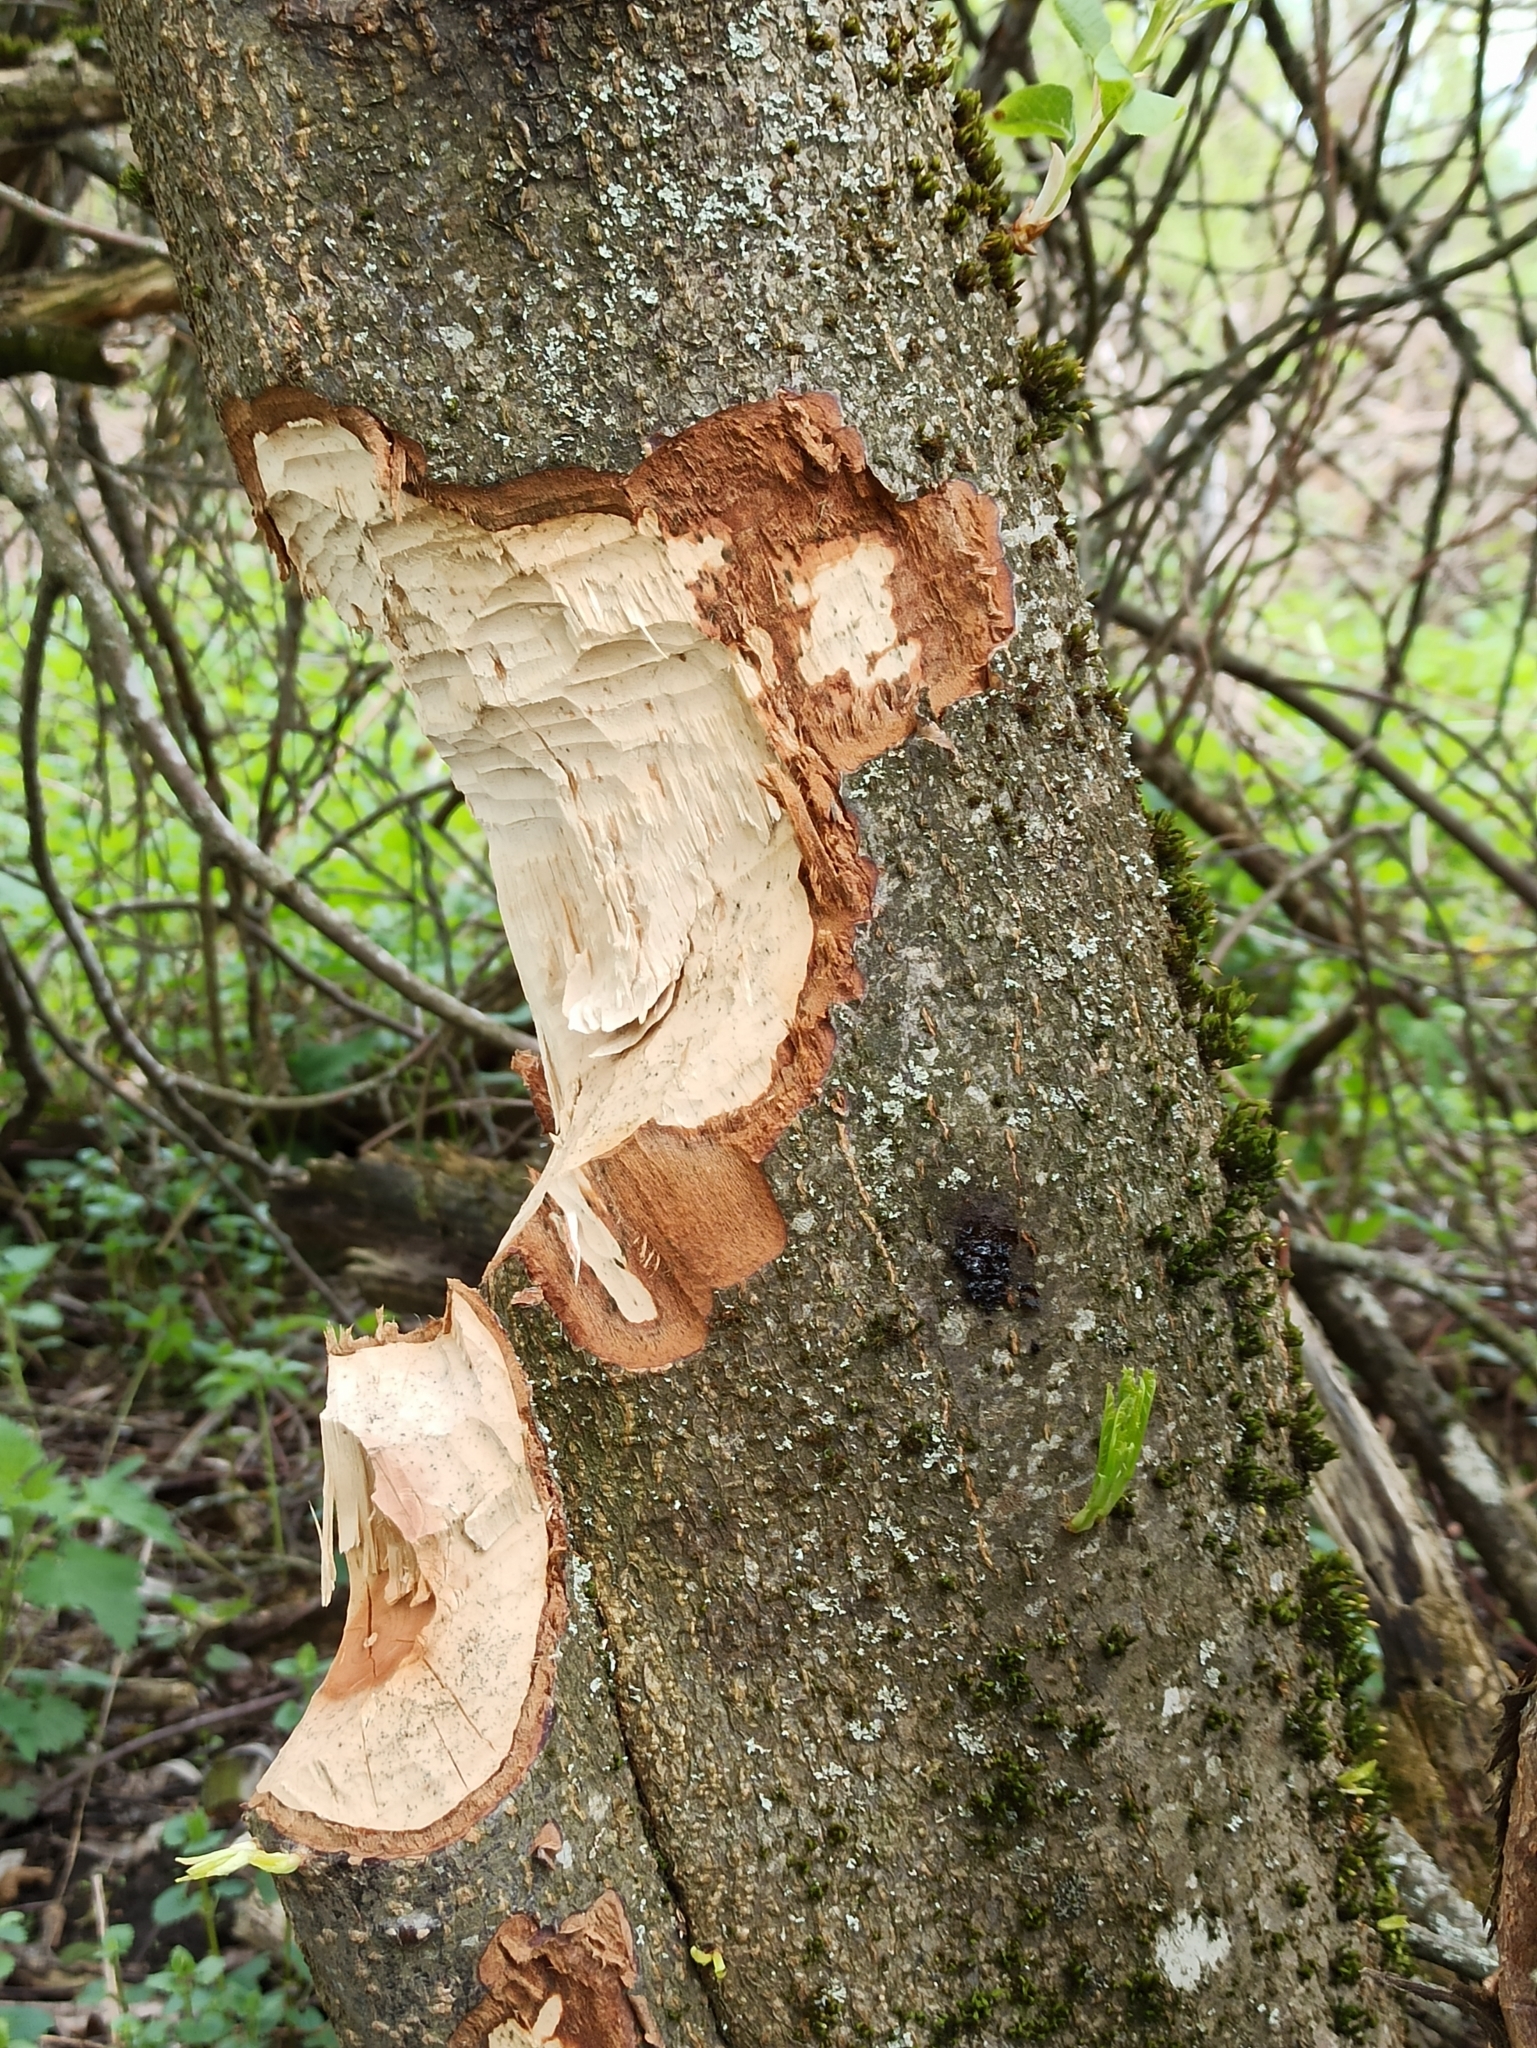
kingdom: Animalia
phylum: Chordata
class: Mammalia
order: Rodentia
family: Castoridae
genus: Castor
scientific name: Castor fiber
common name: Eurasian beaver
